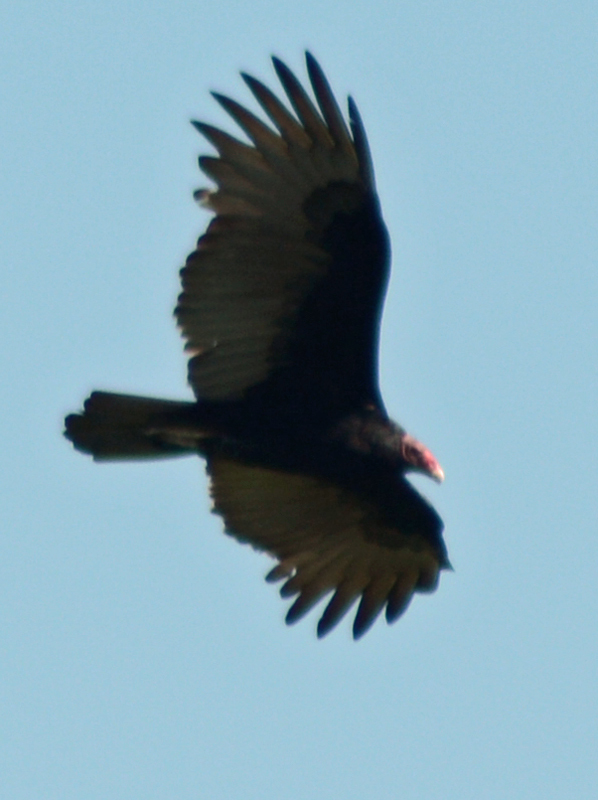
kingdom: Animalia
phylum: Chordata
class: Aves
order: Accipitriformes
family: Cathartidae
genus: Cathartes
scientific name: Cathartes aura
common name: Turkey vulture
